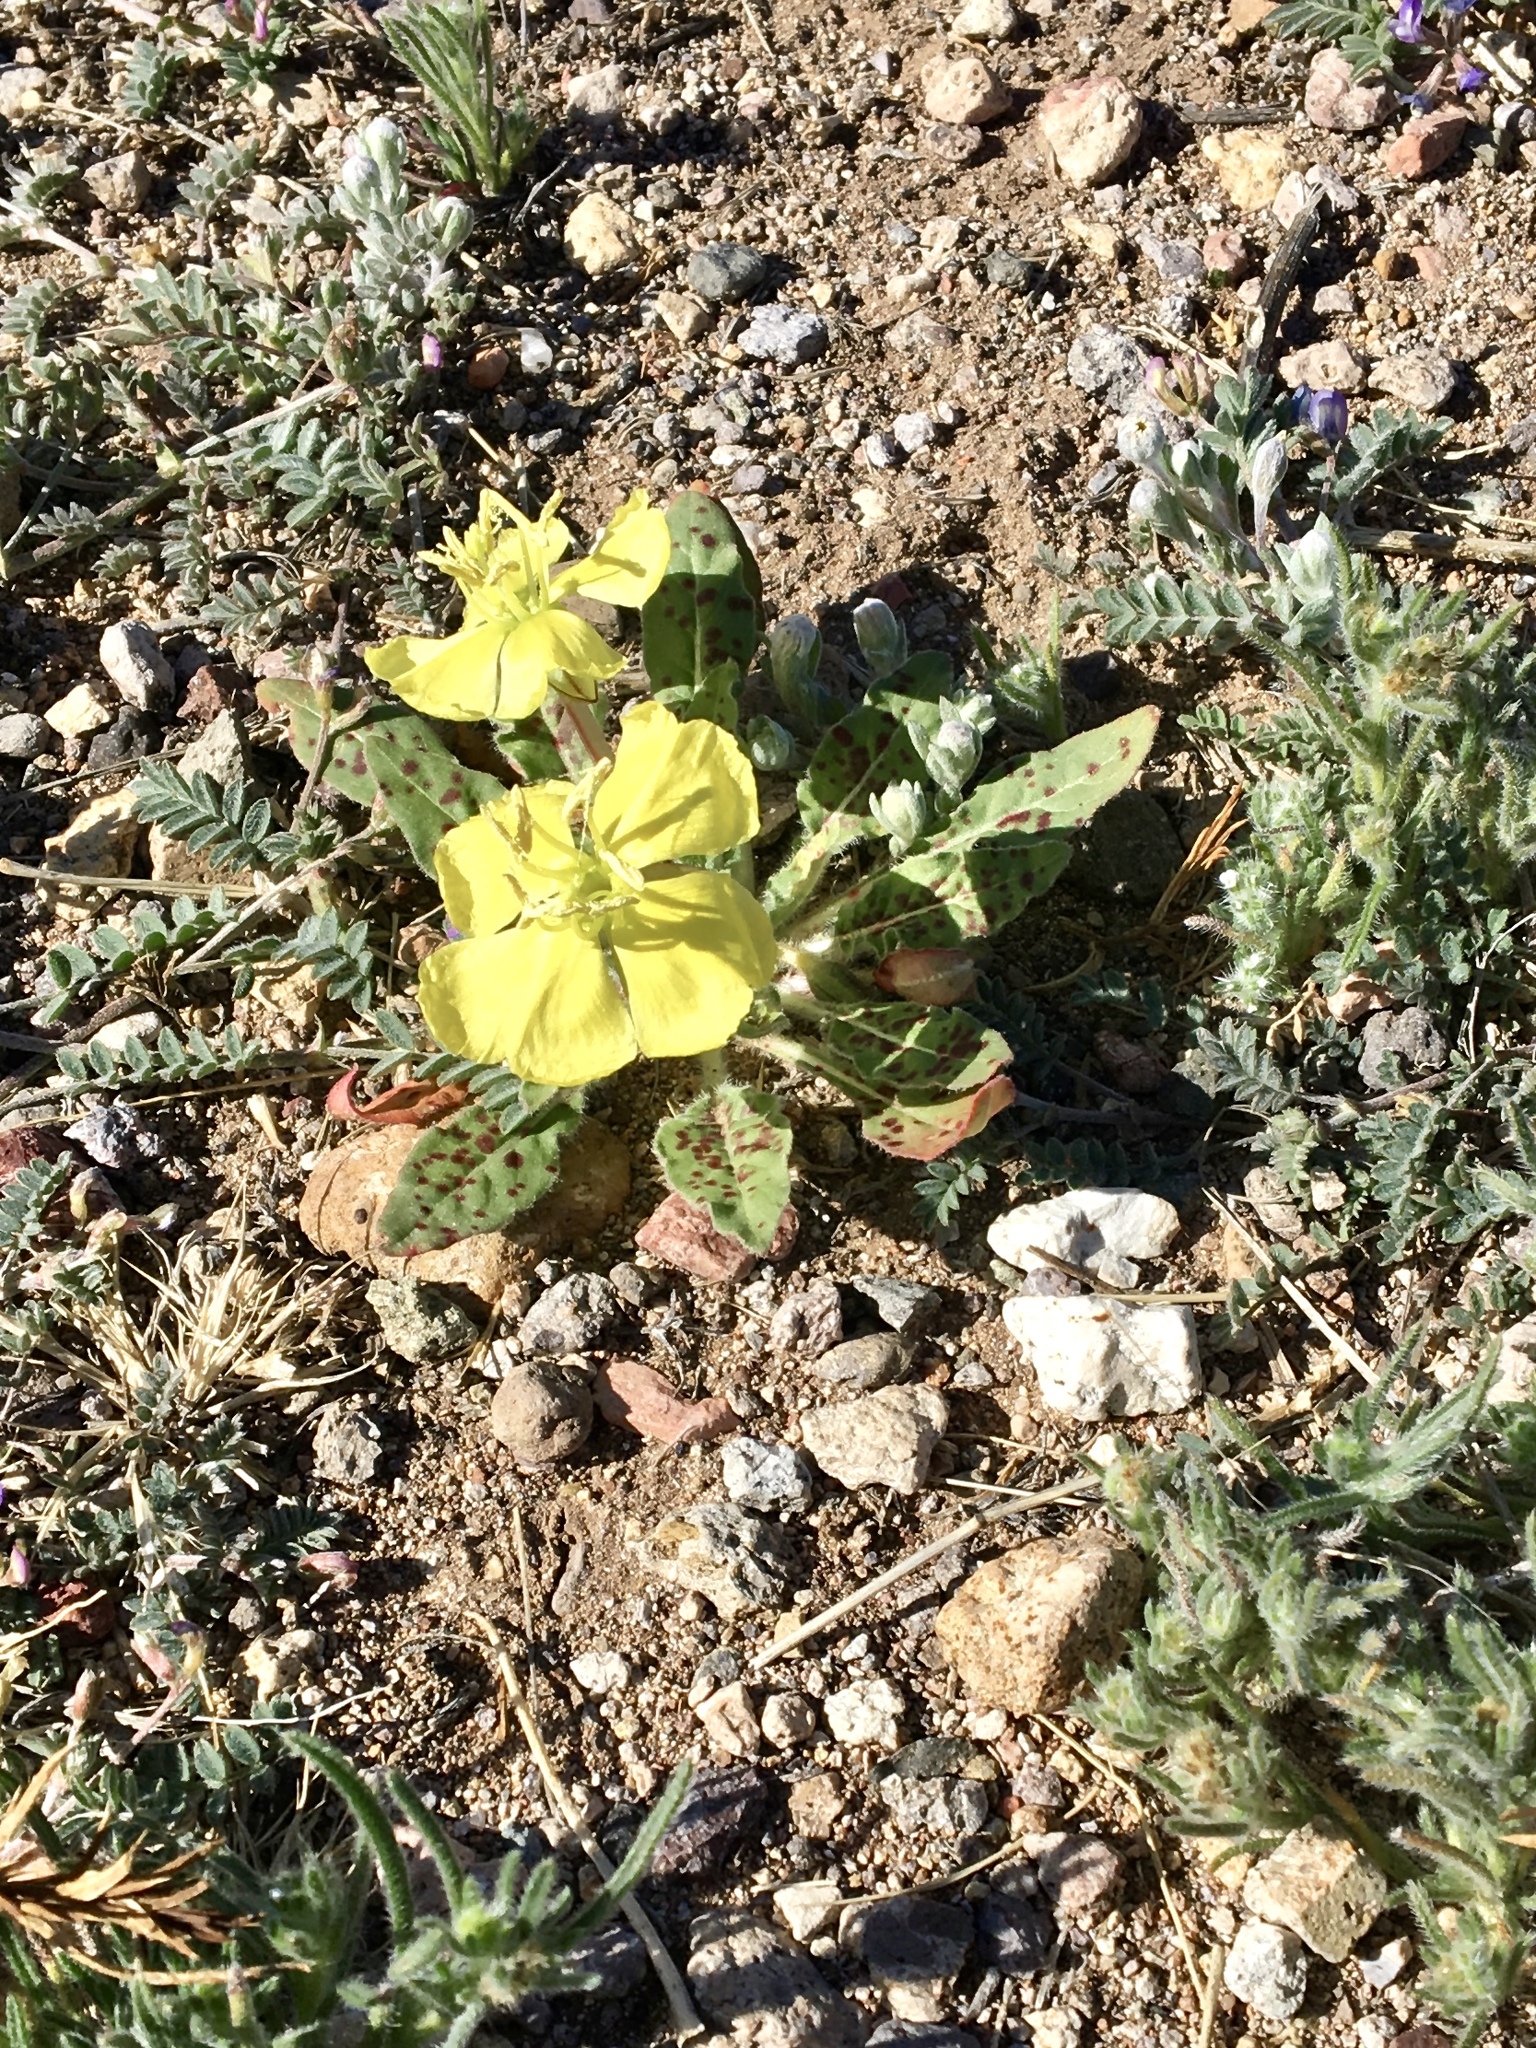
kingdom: Plantae
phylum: Tracheophyta
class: Magnoliopsida
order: Myrtales
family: Onagraceae
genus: Oenothera
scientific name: Oenothera primiveris
